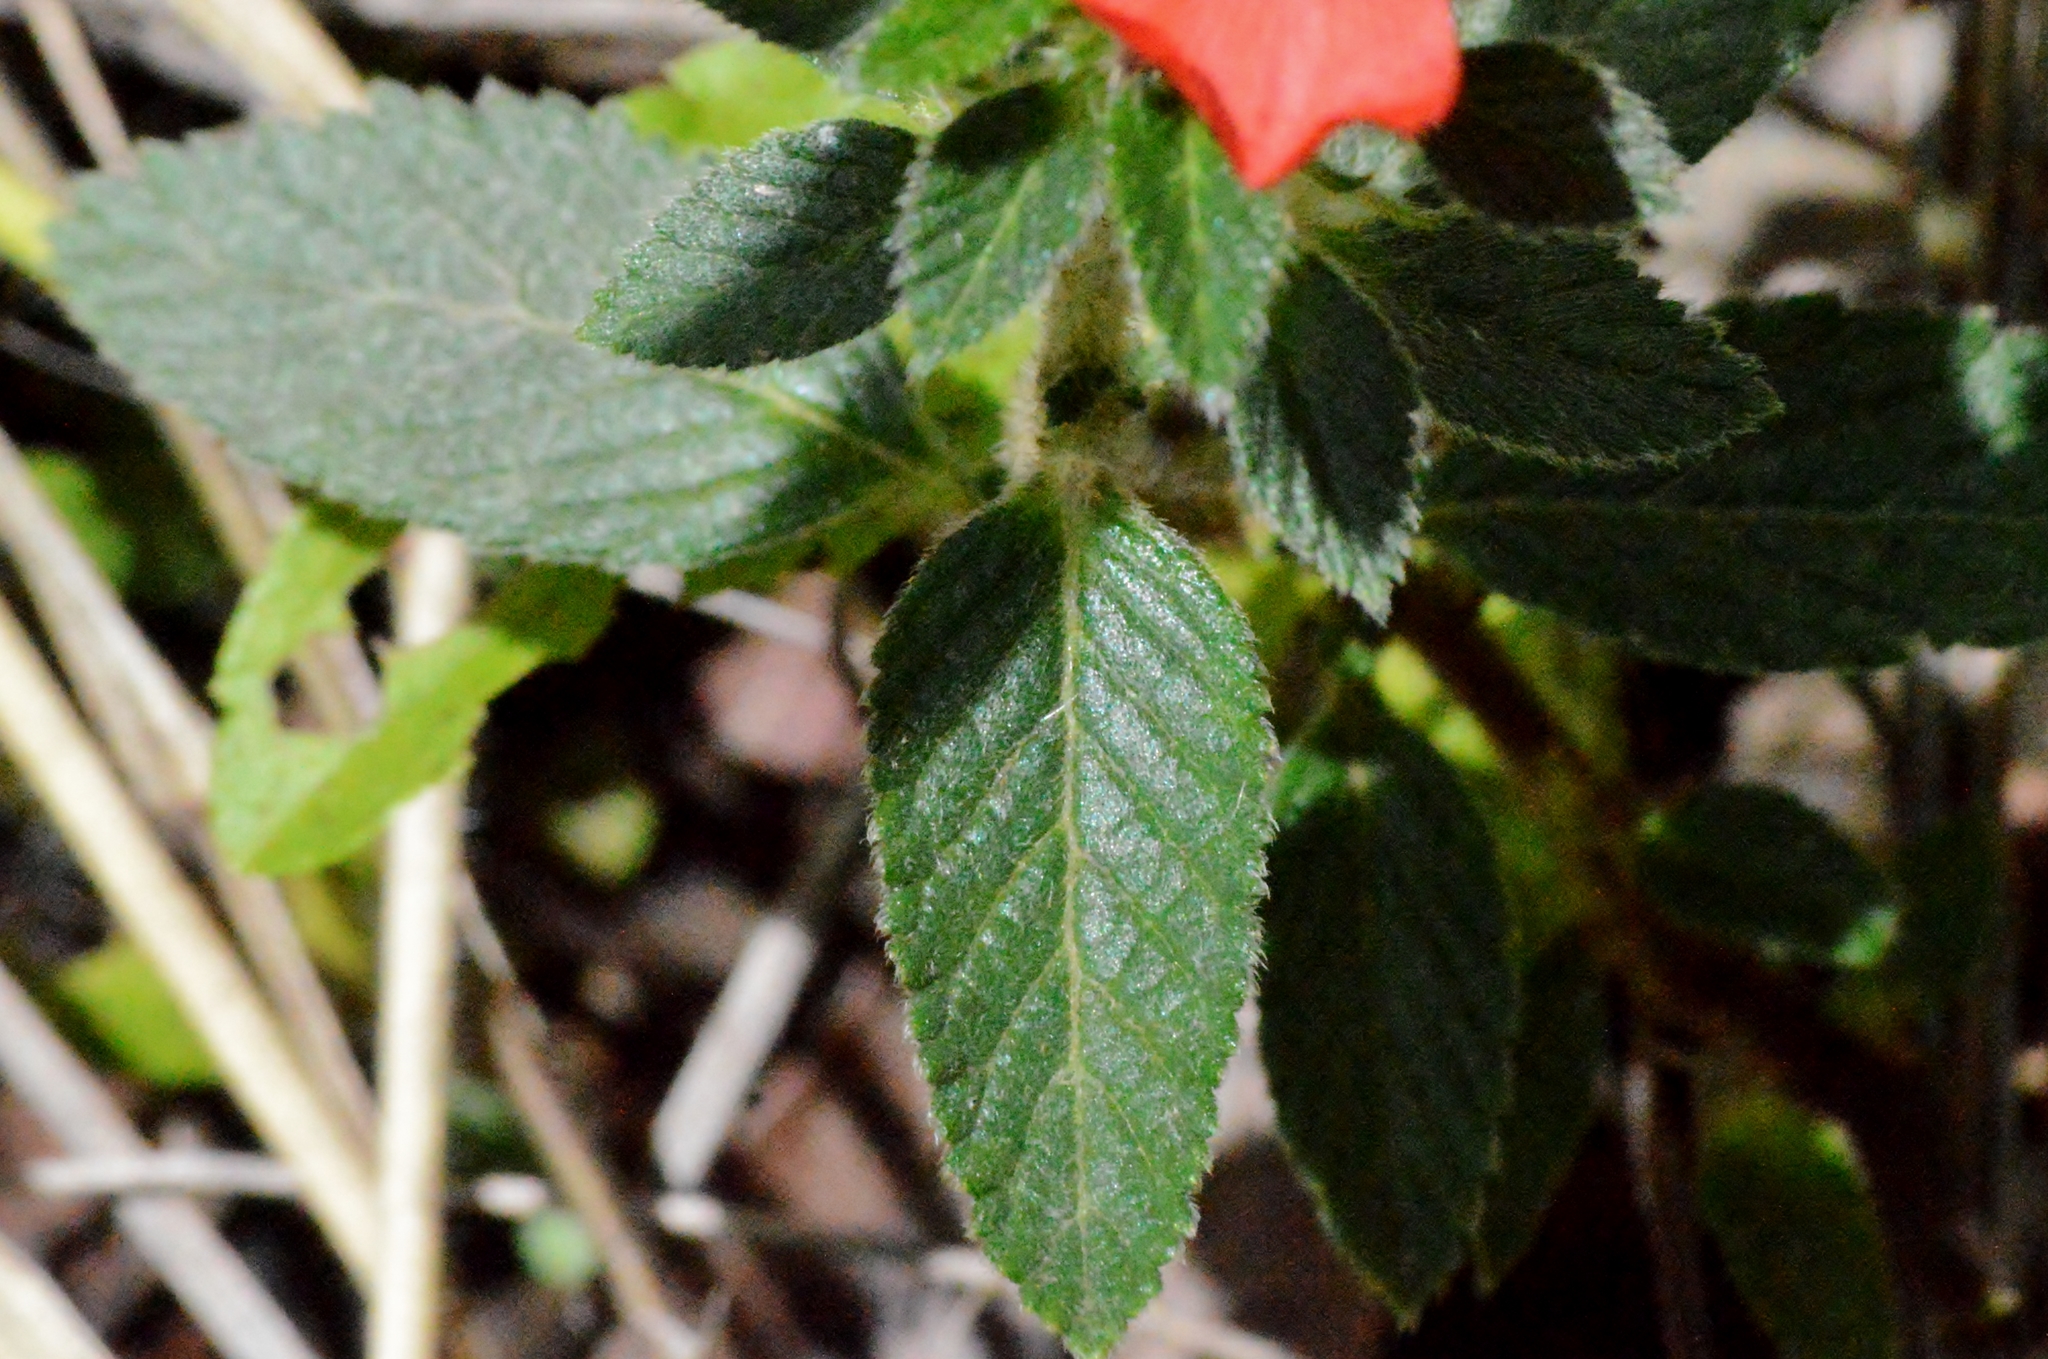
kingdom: Plantae
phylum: Tracheophyta
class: Magnoliopsida
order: Malpighiales
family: Turneraceae
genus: Turnera
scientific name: Turnera longiflora
